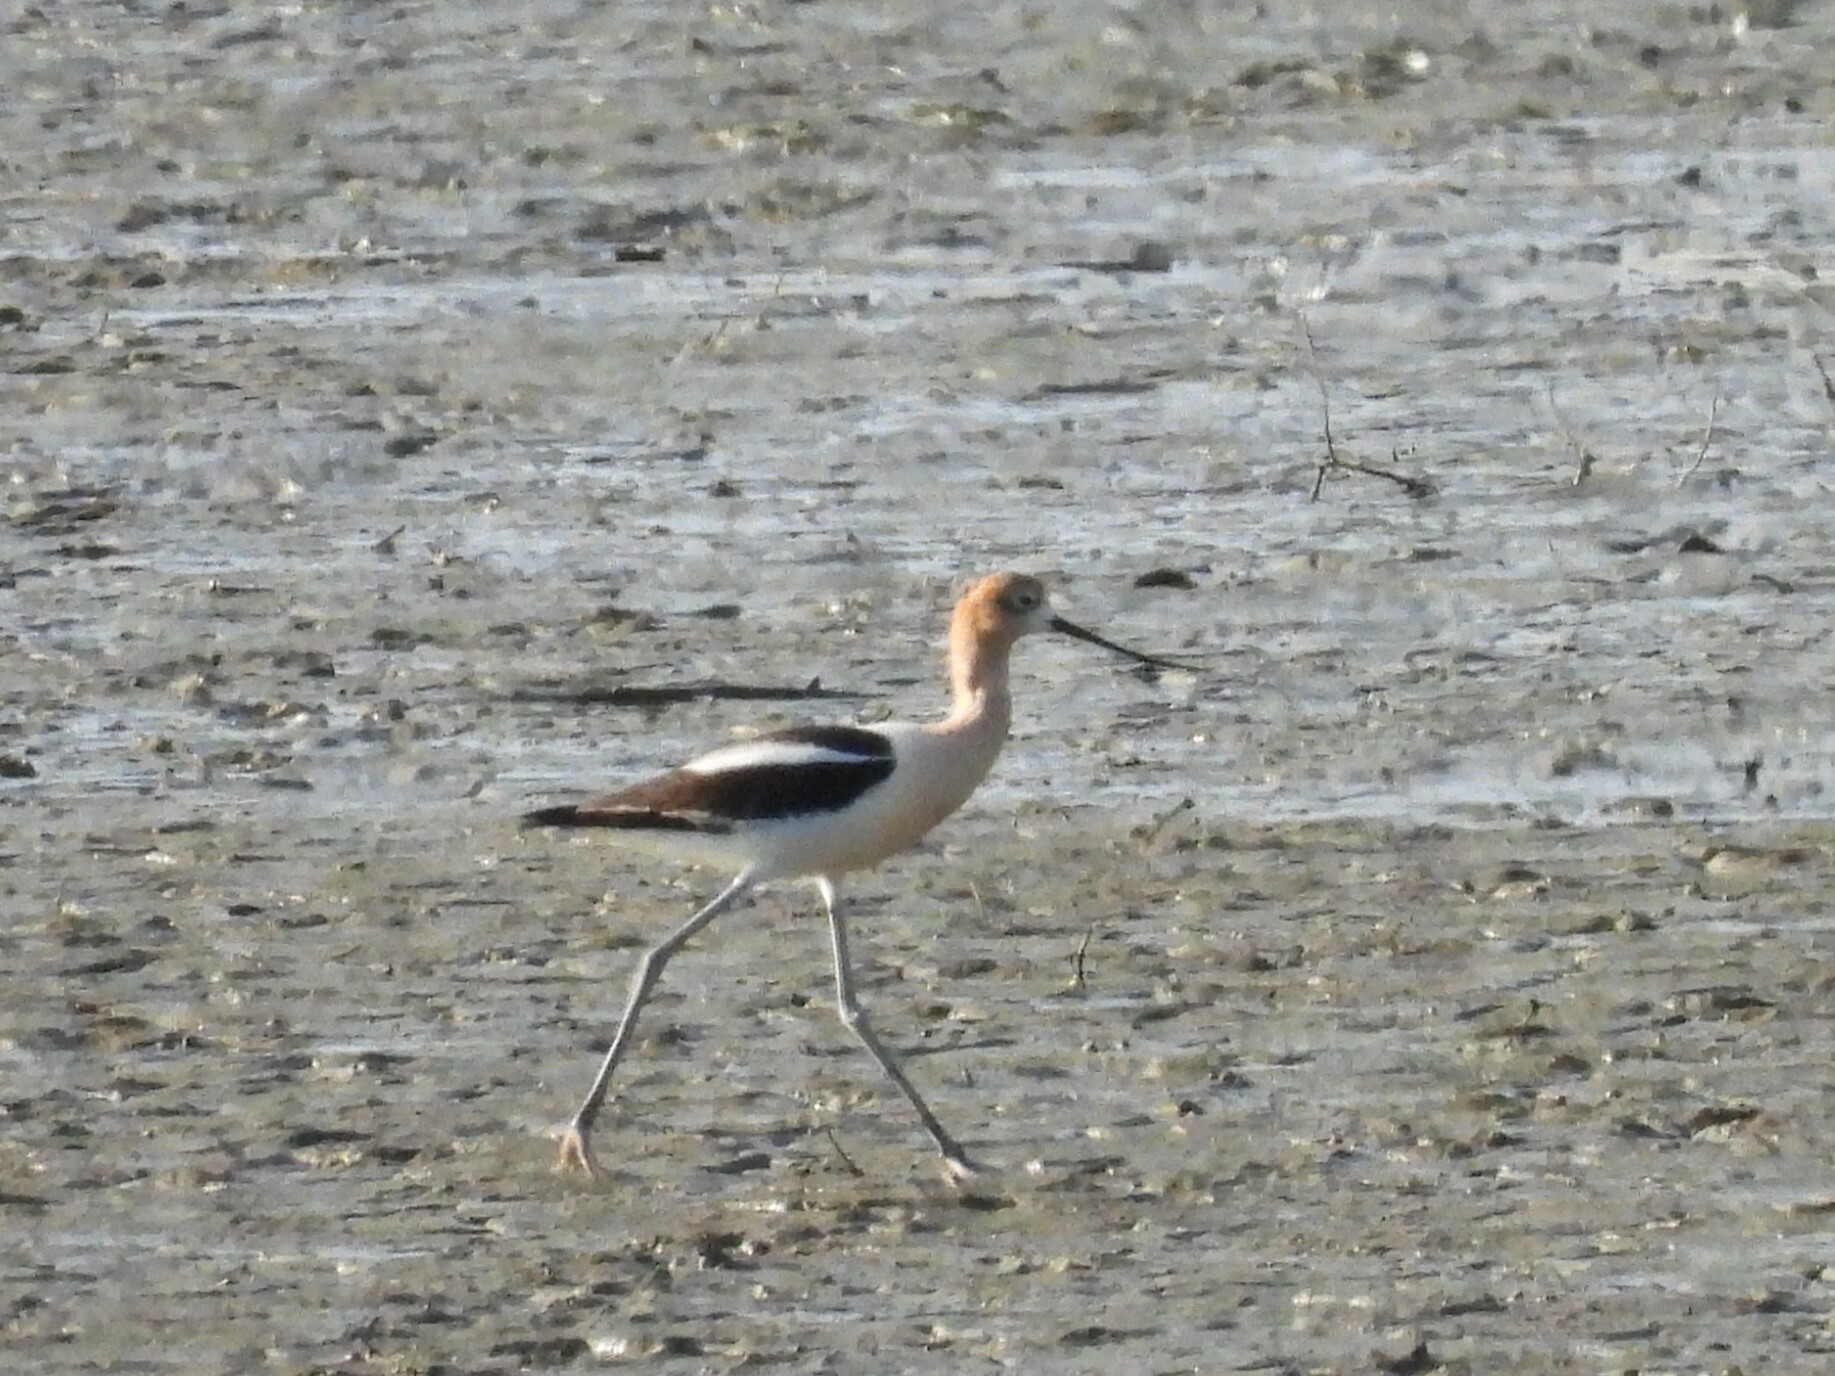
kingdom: Animalia
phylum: Chordata
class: Aves
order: Charadriiformes
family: Recurvirostridae
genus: Recurvirostra
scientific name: Recurvirostra americana
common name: American avocet
